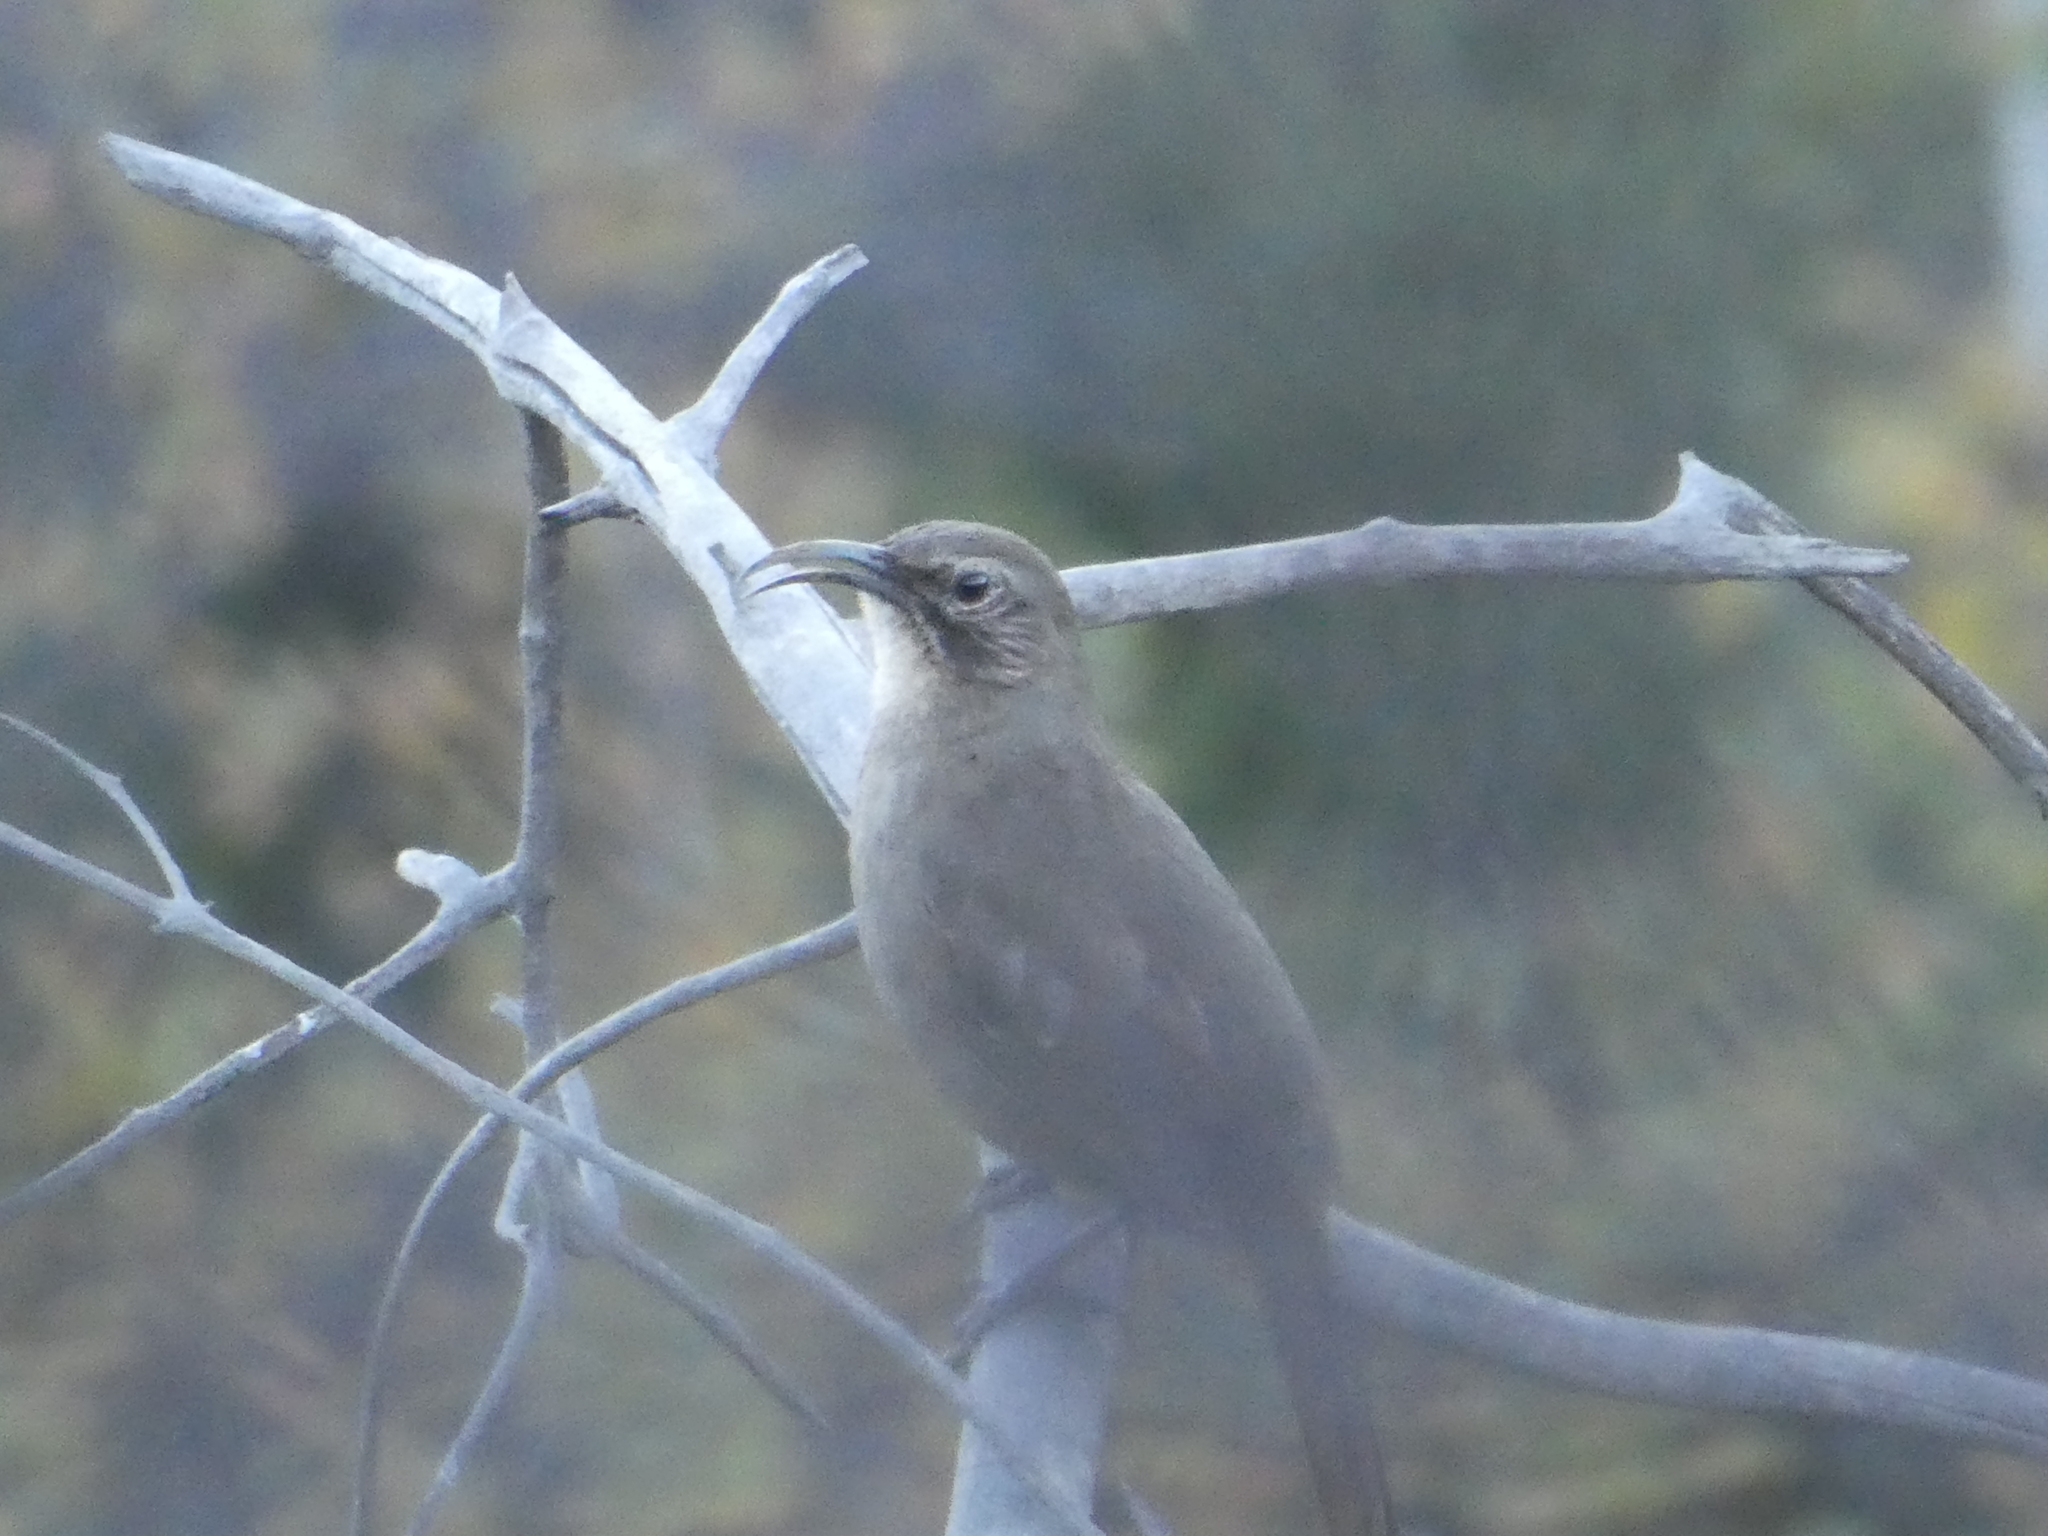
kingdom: Animalia
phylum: Chordata
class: Aves
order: Passeriformes
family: Mimidae
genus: Toxostoma
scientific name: Toxostoma redivivum
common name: California thrasher
